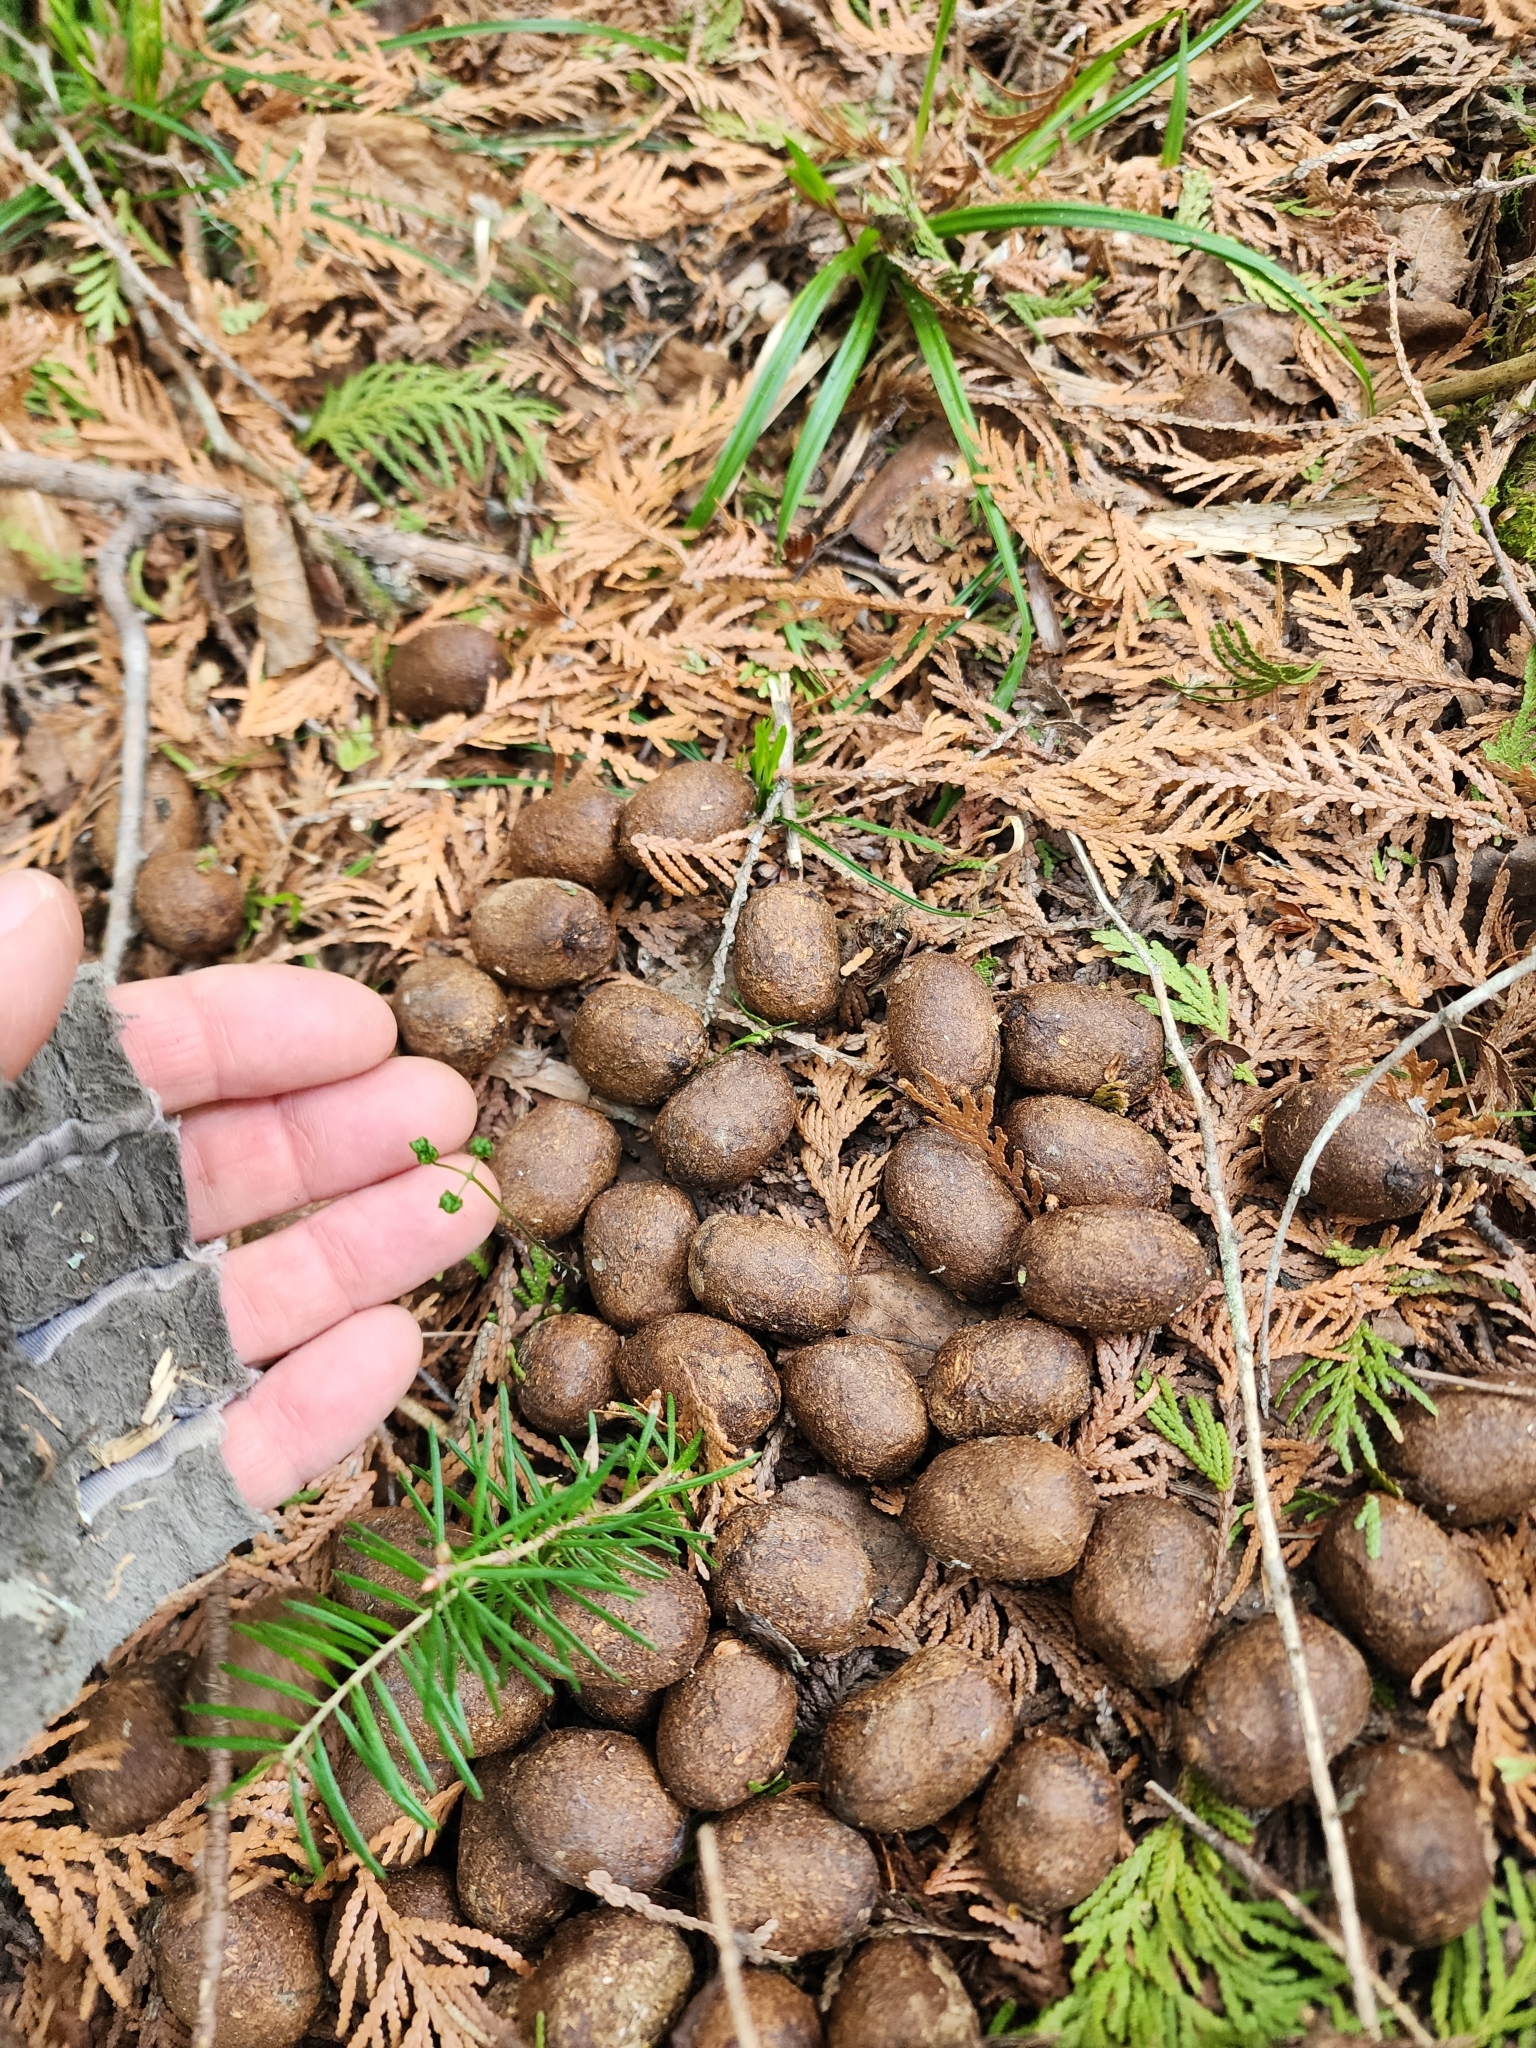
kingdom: Animalia
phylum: Chordata
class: Mammalia
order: Artiodactyla
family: Cervidae
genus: Alces
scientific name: Alces alces
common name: Moose
